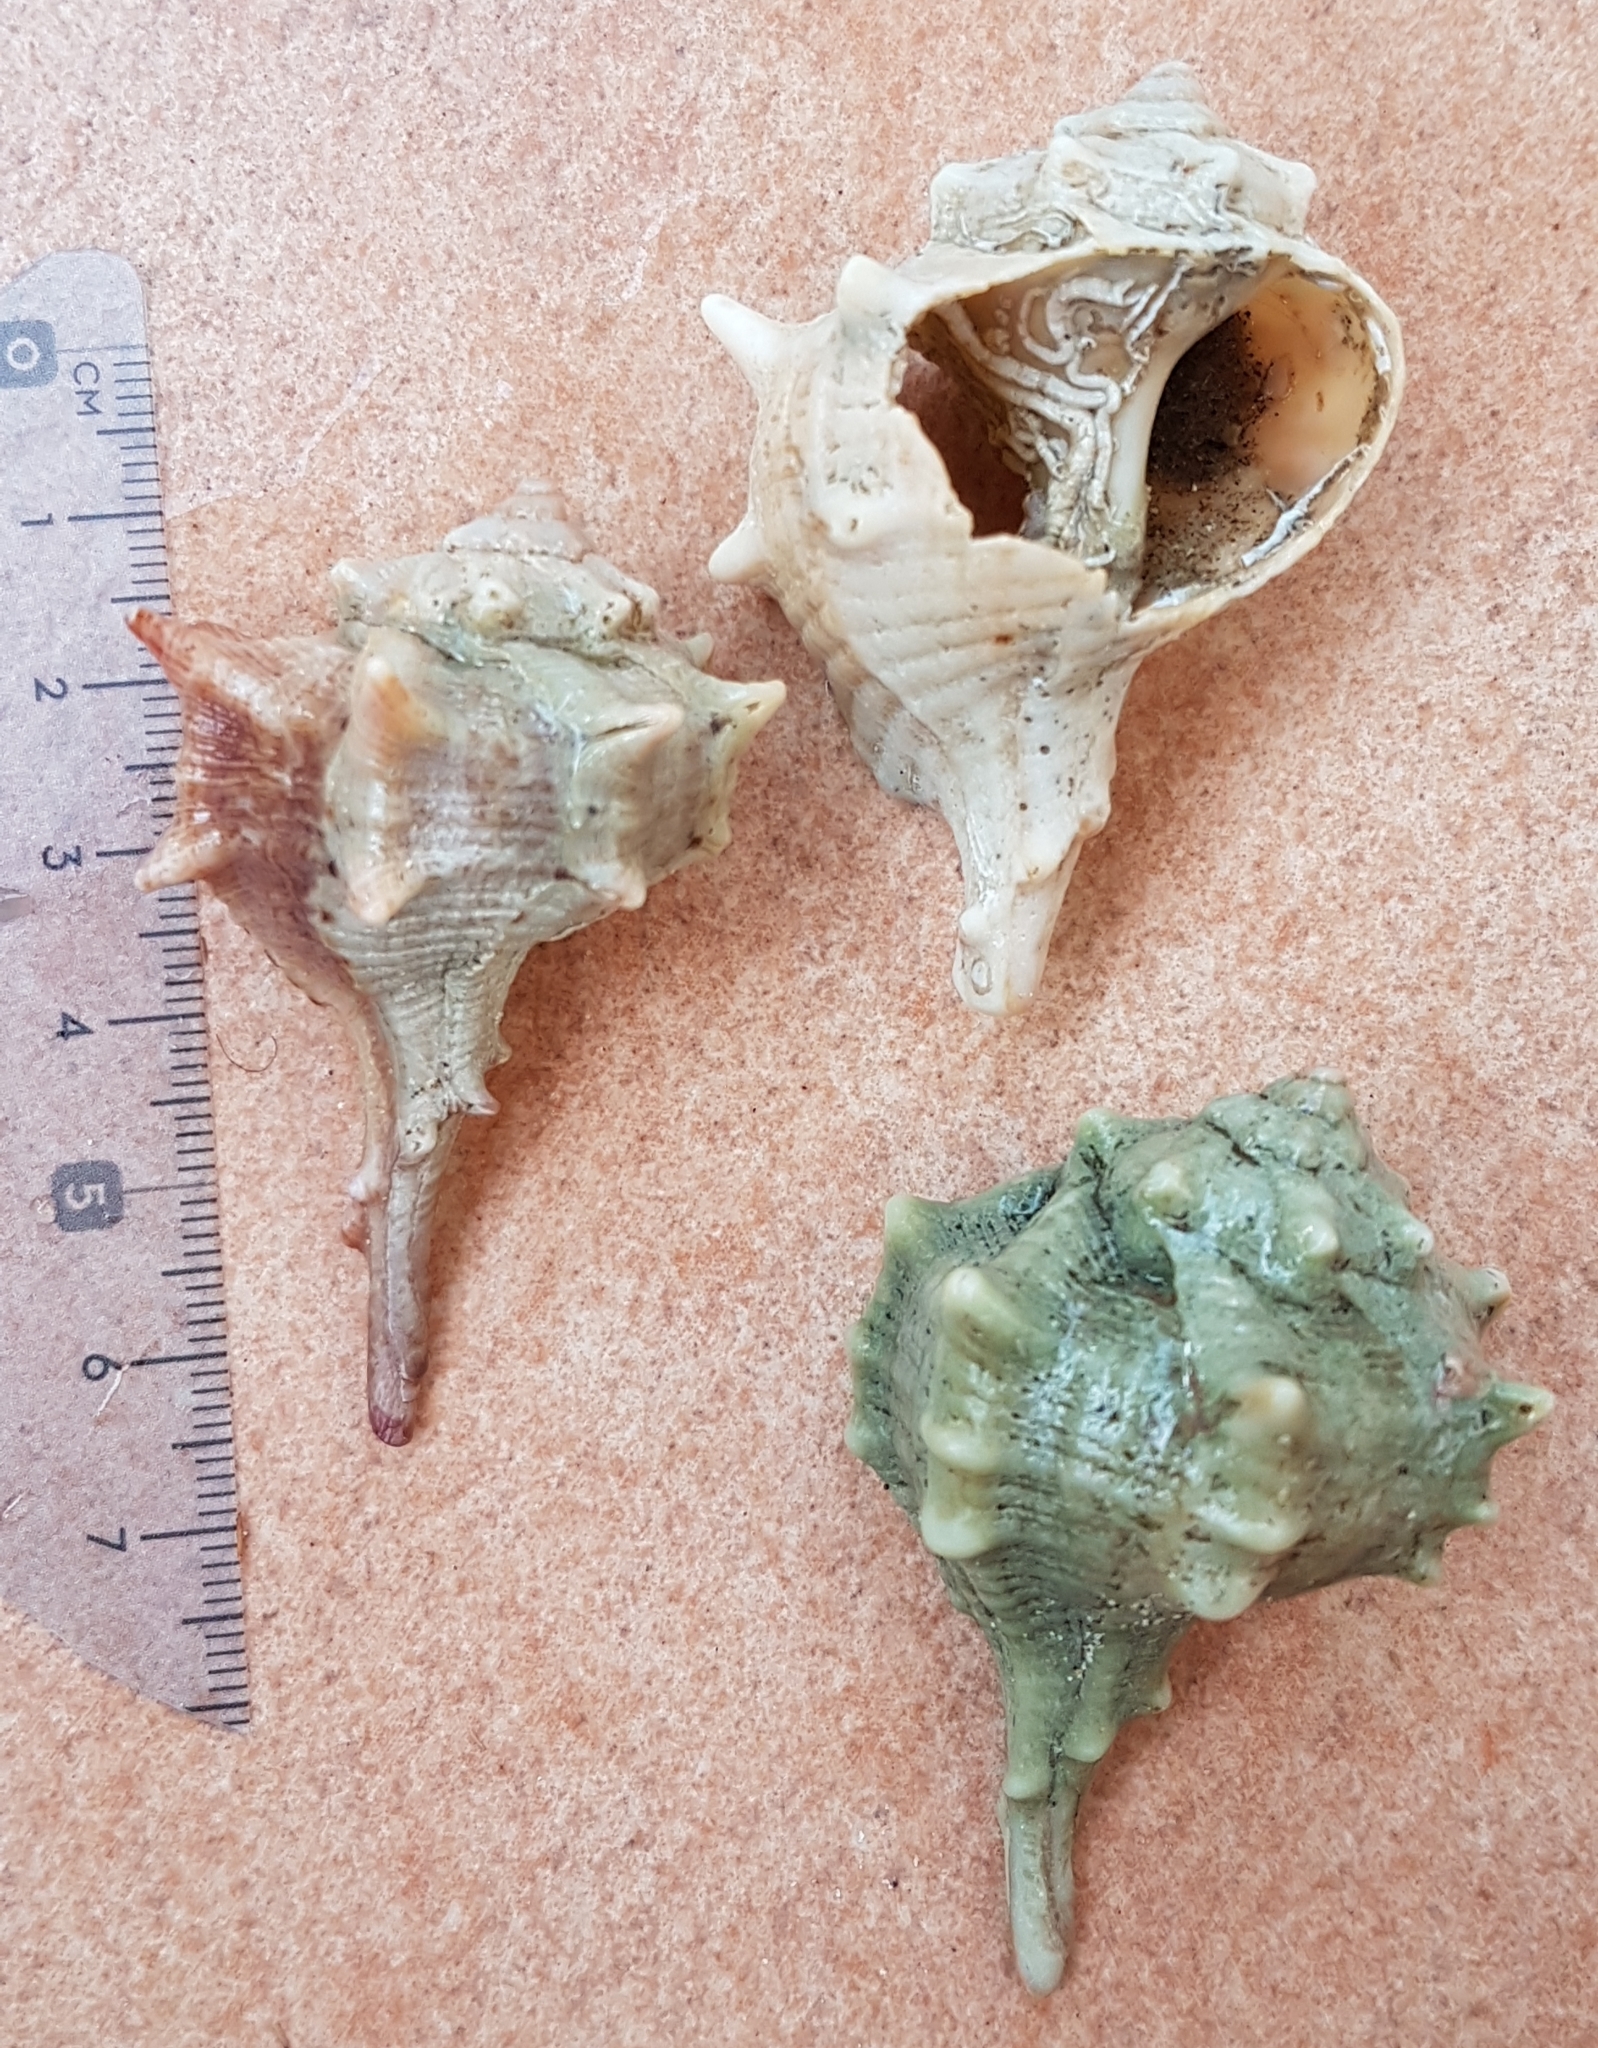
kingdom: Animalia
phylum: Mollusca
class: Gastropoda
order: Neogastropoda
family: Muricidae
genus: Bolinus
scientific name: Bolinus brandaris
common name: Dye murex
